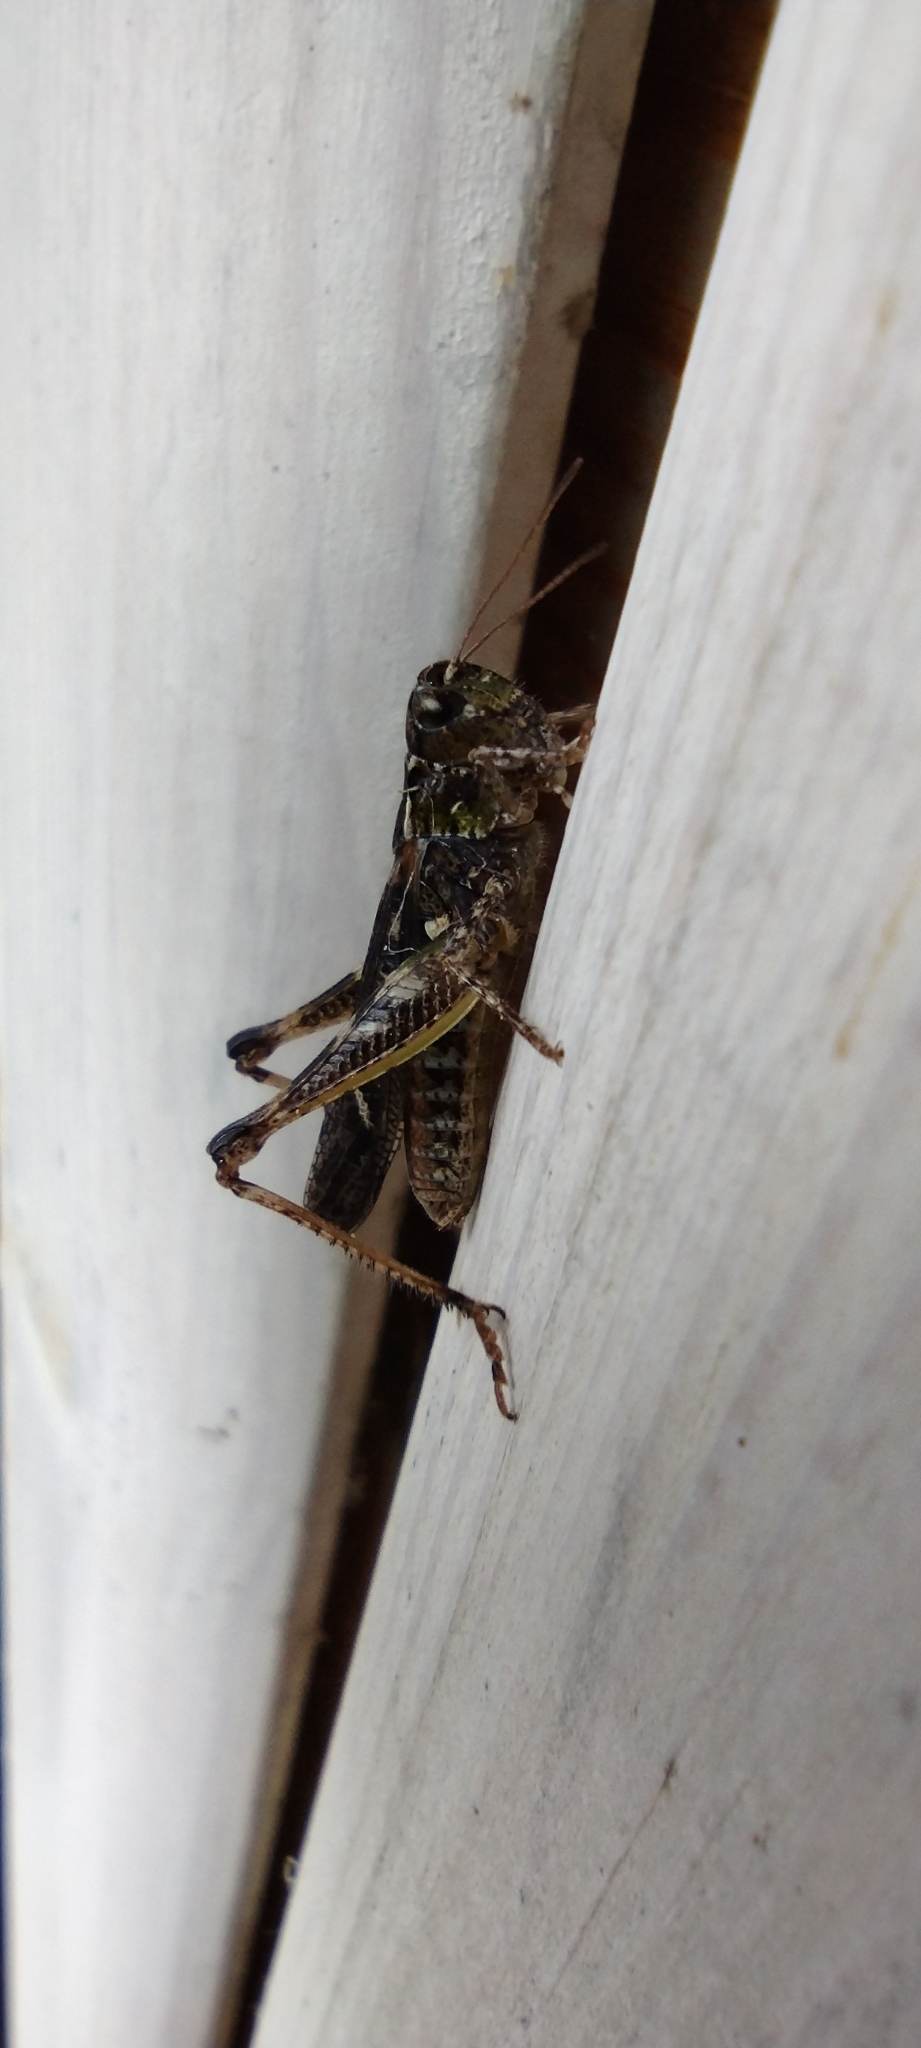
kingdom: Animalia
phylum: Arthropoda
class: Insecta
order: Orthoptera
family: Acrididae
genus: Myrmeleotettix
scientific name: Myrmeleotettix maculatus
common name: Mottled grasshopper
